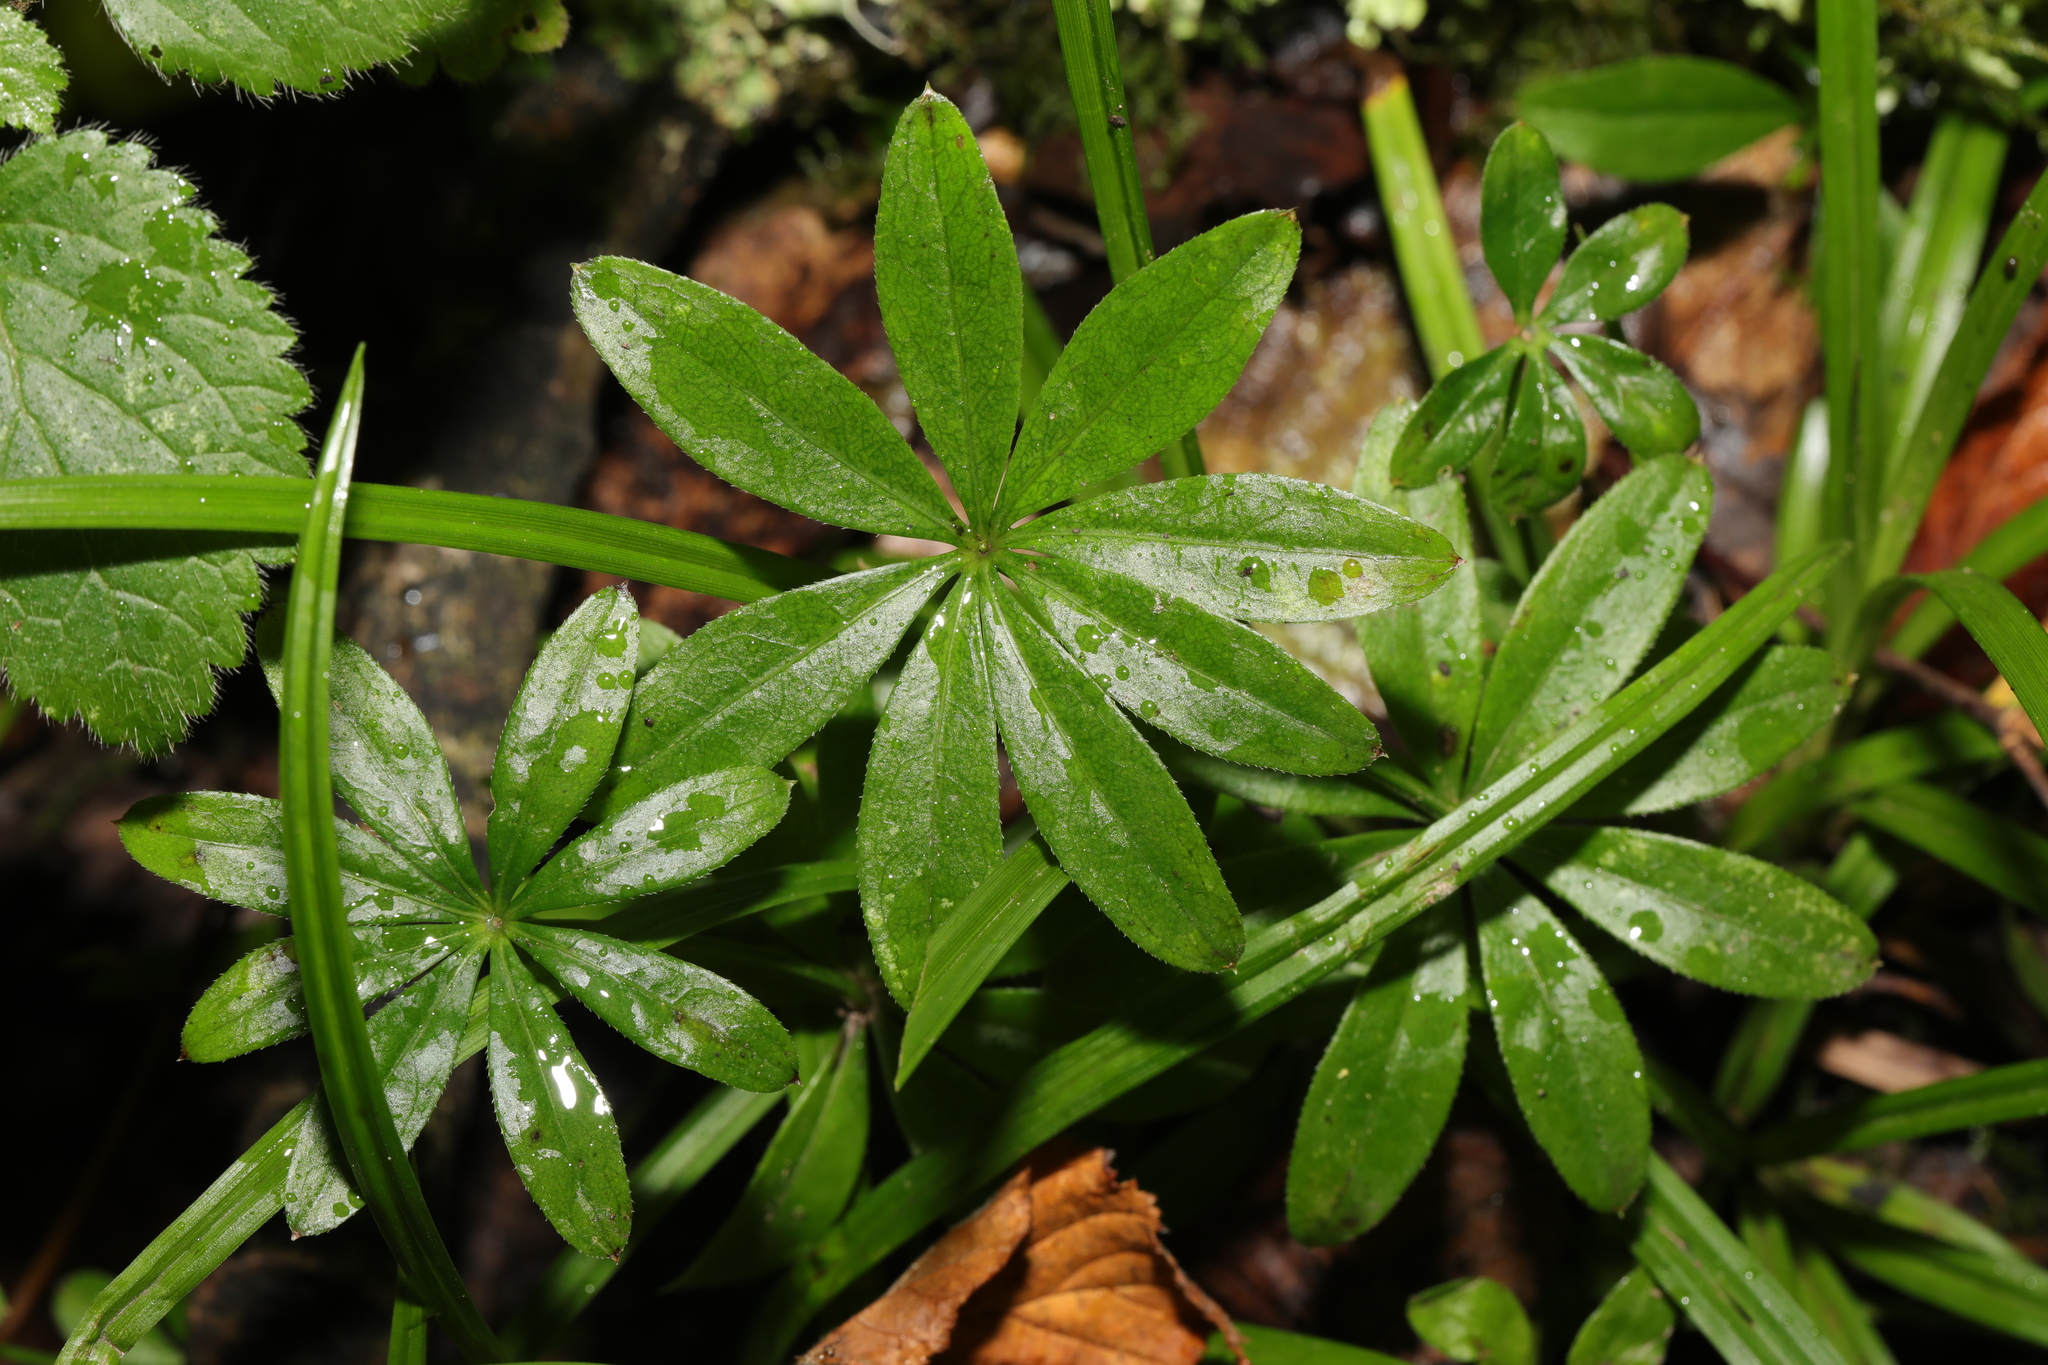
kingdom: Plantae
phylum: Tracheophyta
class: Magnoliopsida
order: Gentianales
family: Rubiaceae
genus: Galium
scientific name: Galium odoratum
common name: Sweet woodruff
